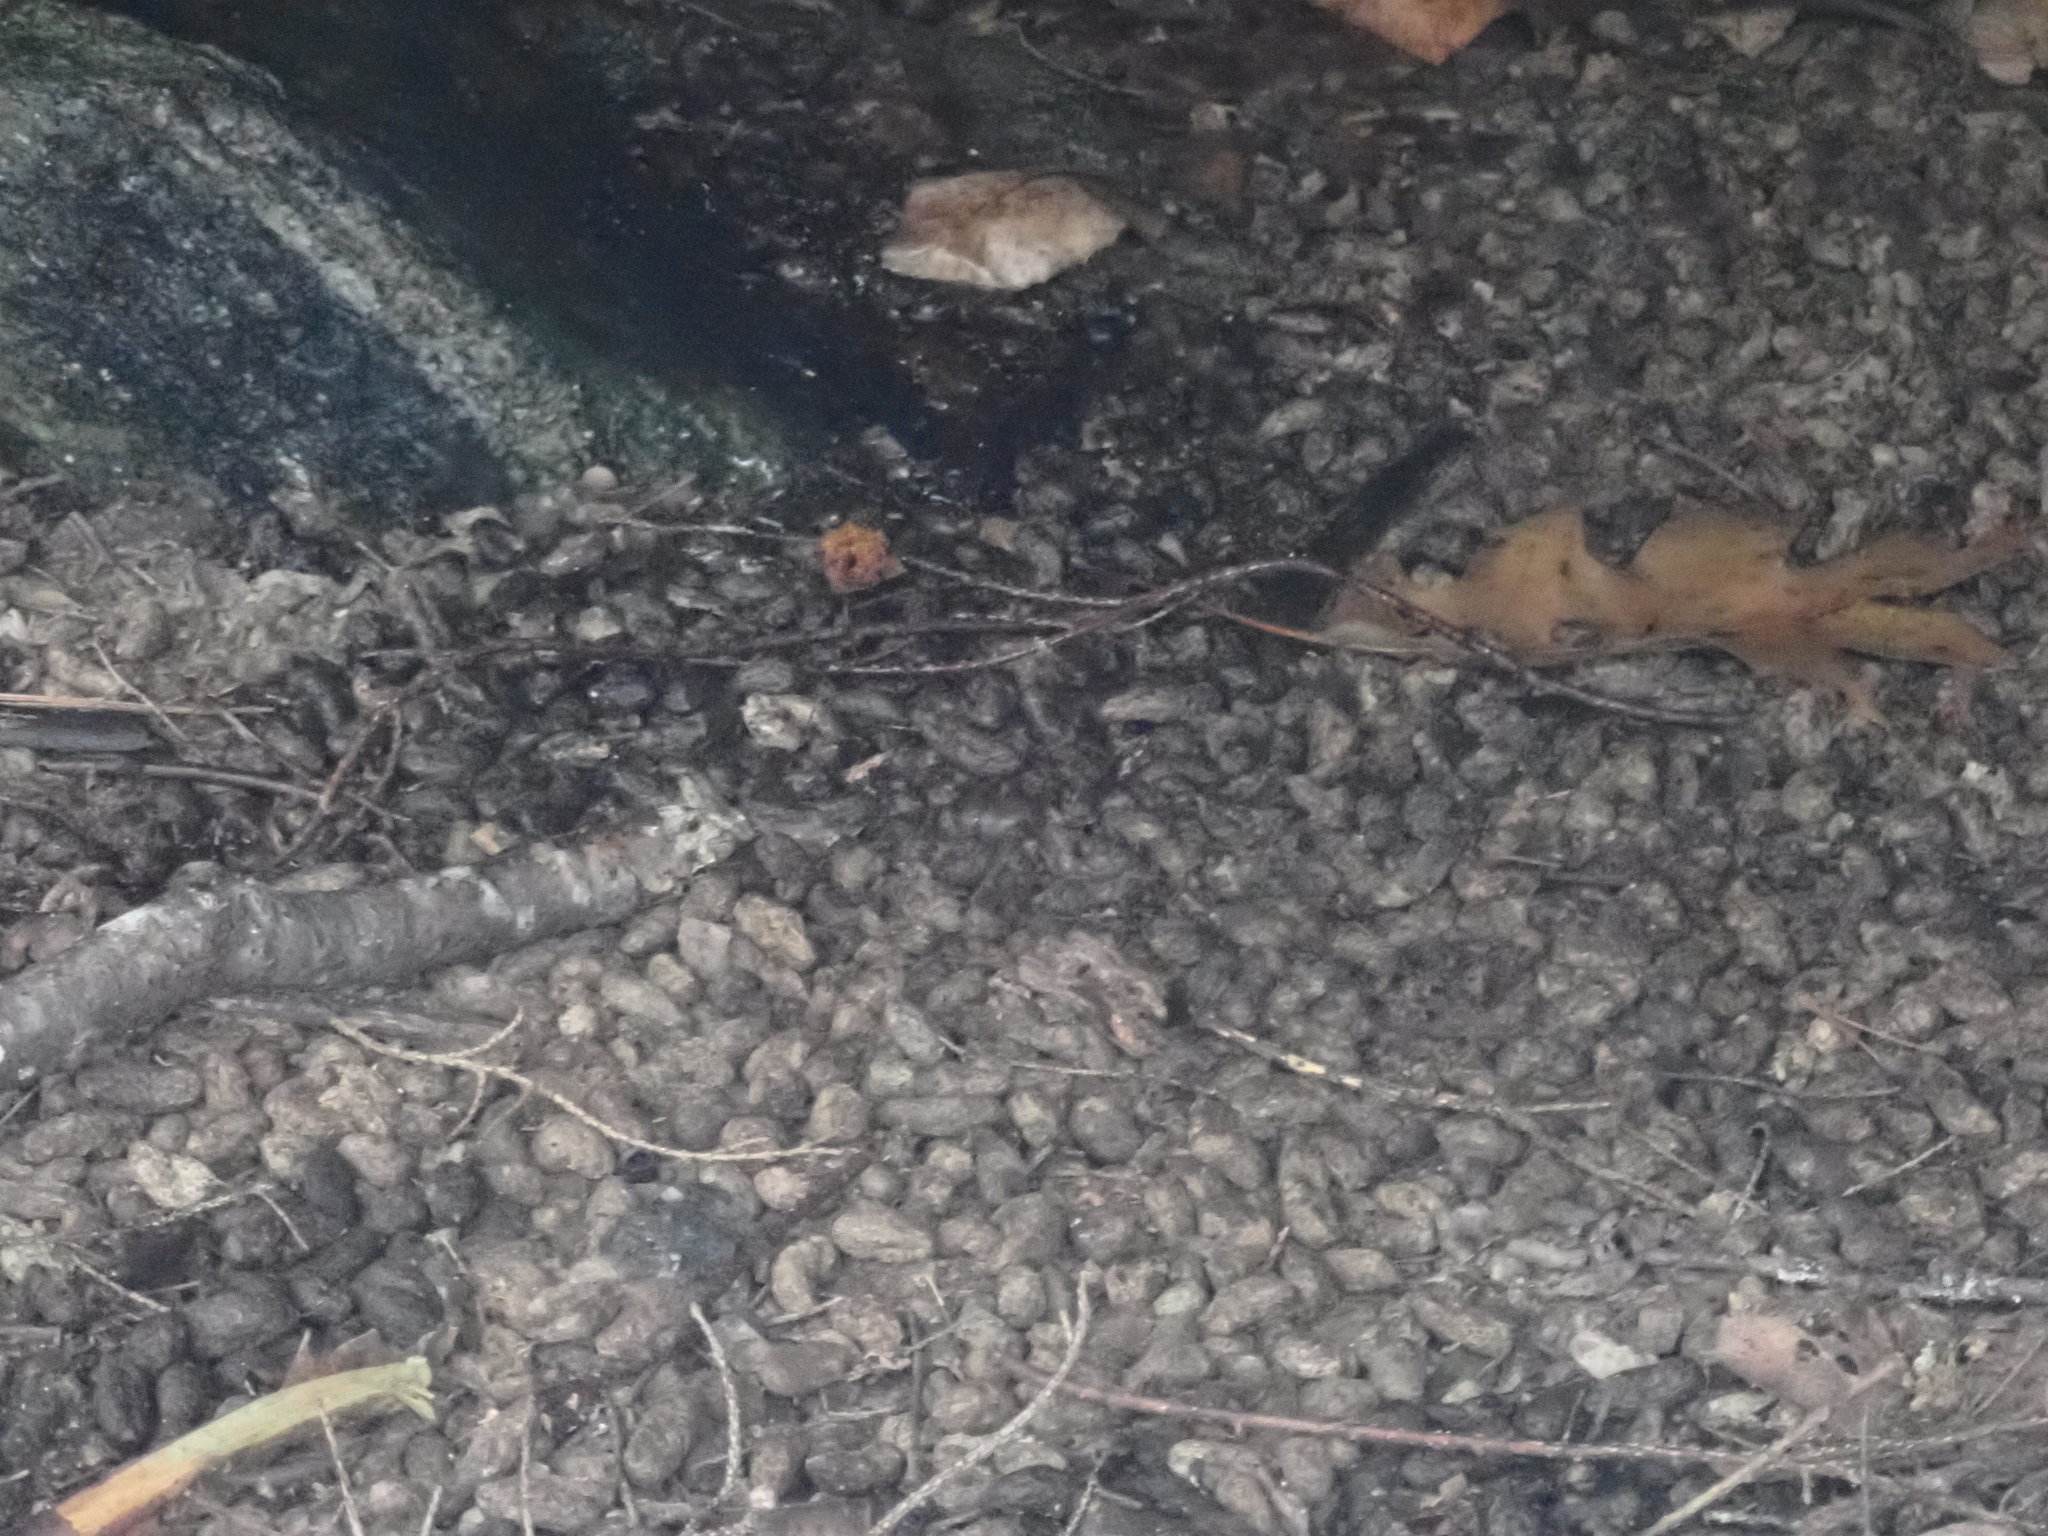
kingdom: Animalia
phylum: Chordata
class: Mammalia
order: Rodentia
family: Erethizontidae
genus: Erethizon
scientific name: Erethizon dorsatus
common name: North american porcupine
